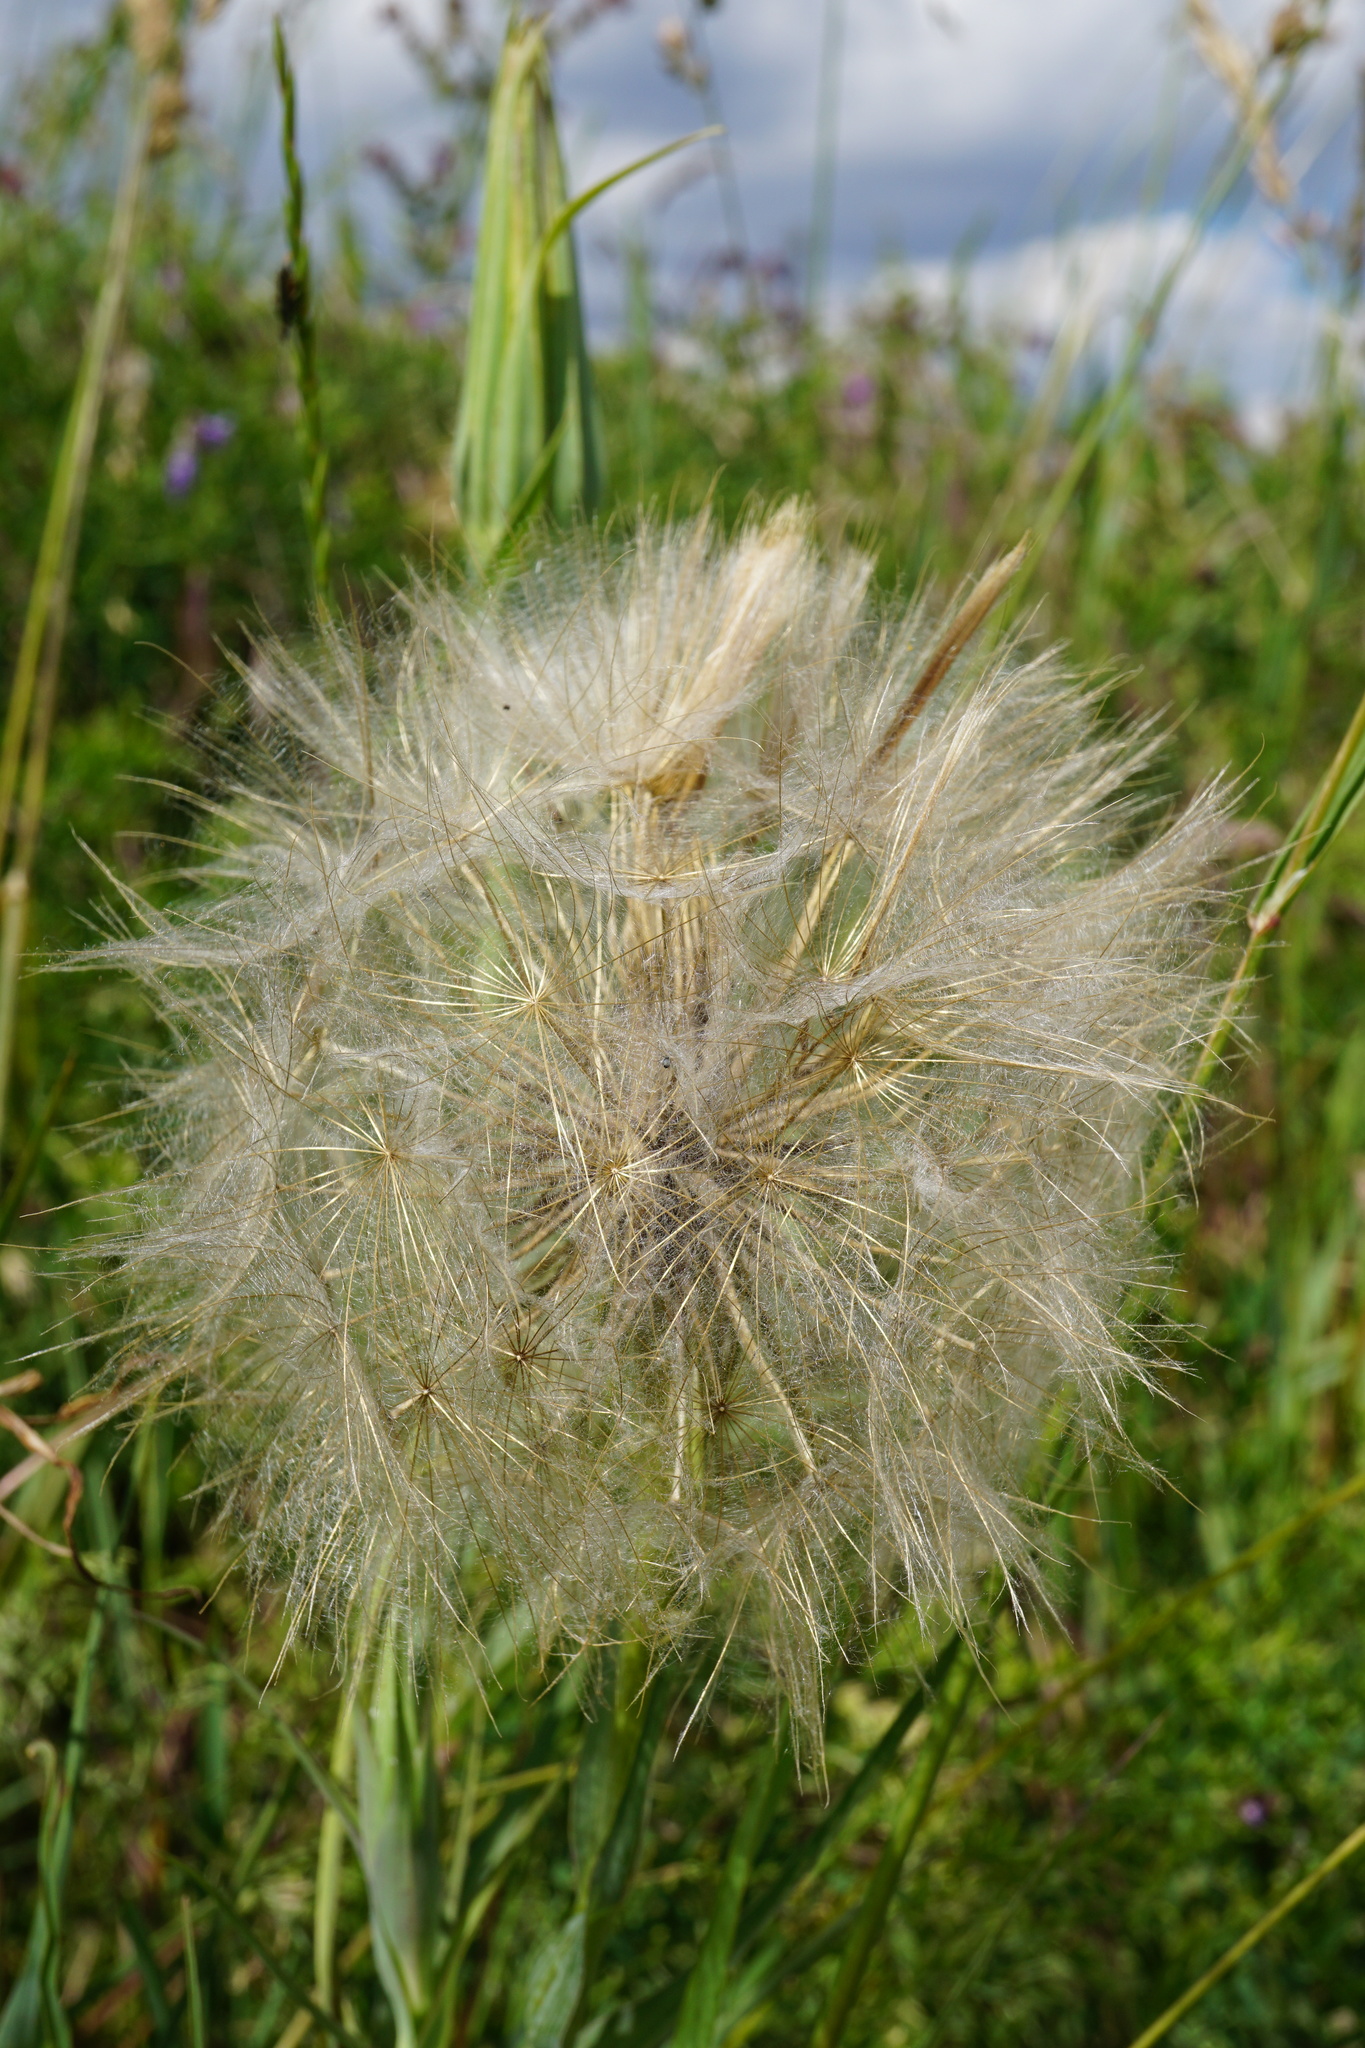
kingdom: Plantae
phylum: Tracheophyta
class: Magnoliopsida
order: Asterales
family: Asteraceae
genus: Tragopogon
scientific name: Tragopogon dubius
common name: Yellow salsify
